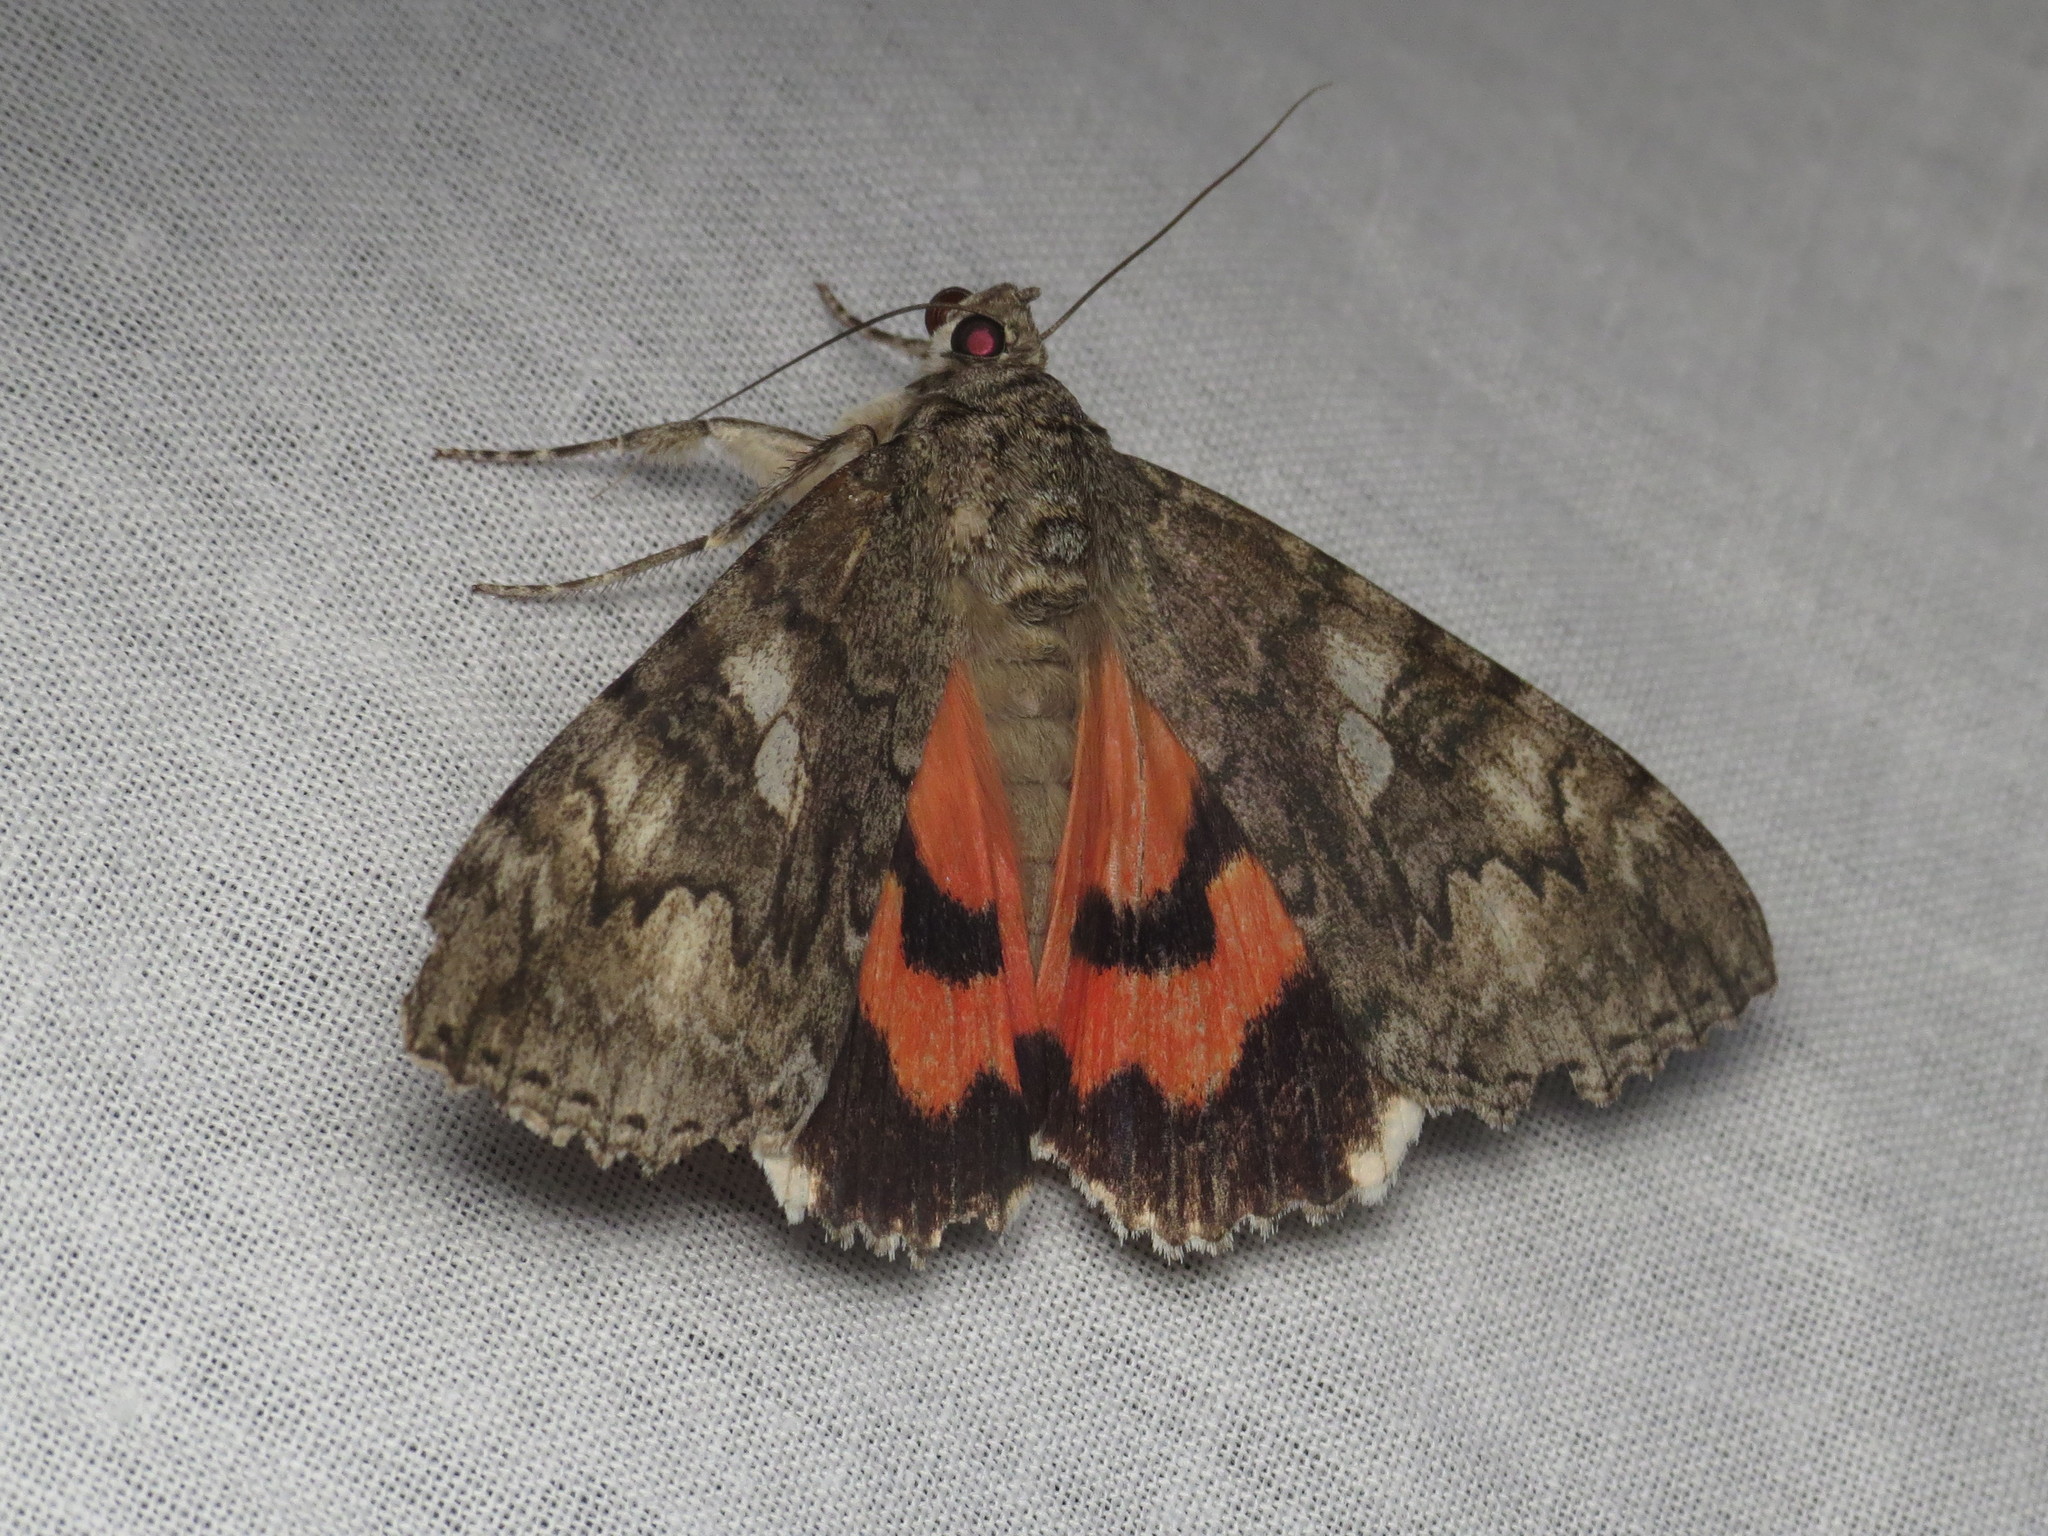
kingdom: Animalia
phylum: Arthropoda
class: Insecta
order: Lepidoptera
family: Erebidae
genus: Catocala
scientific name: Catocala nupta
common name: Red underwing
